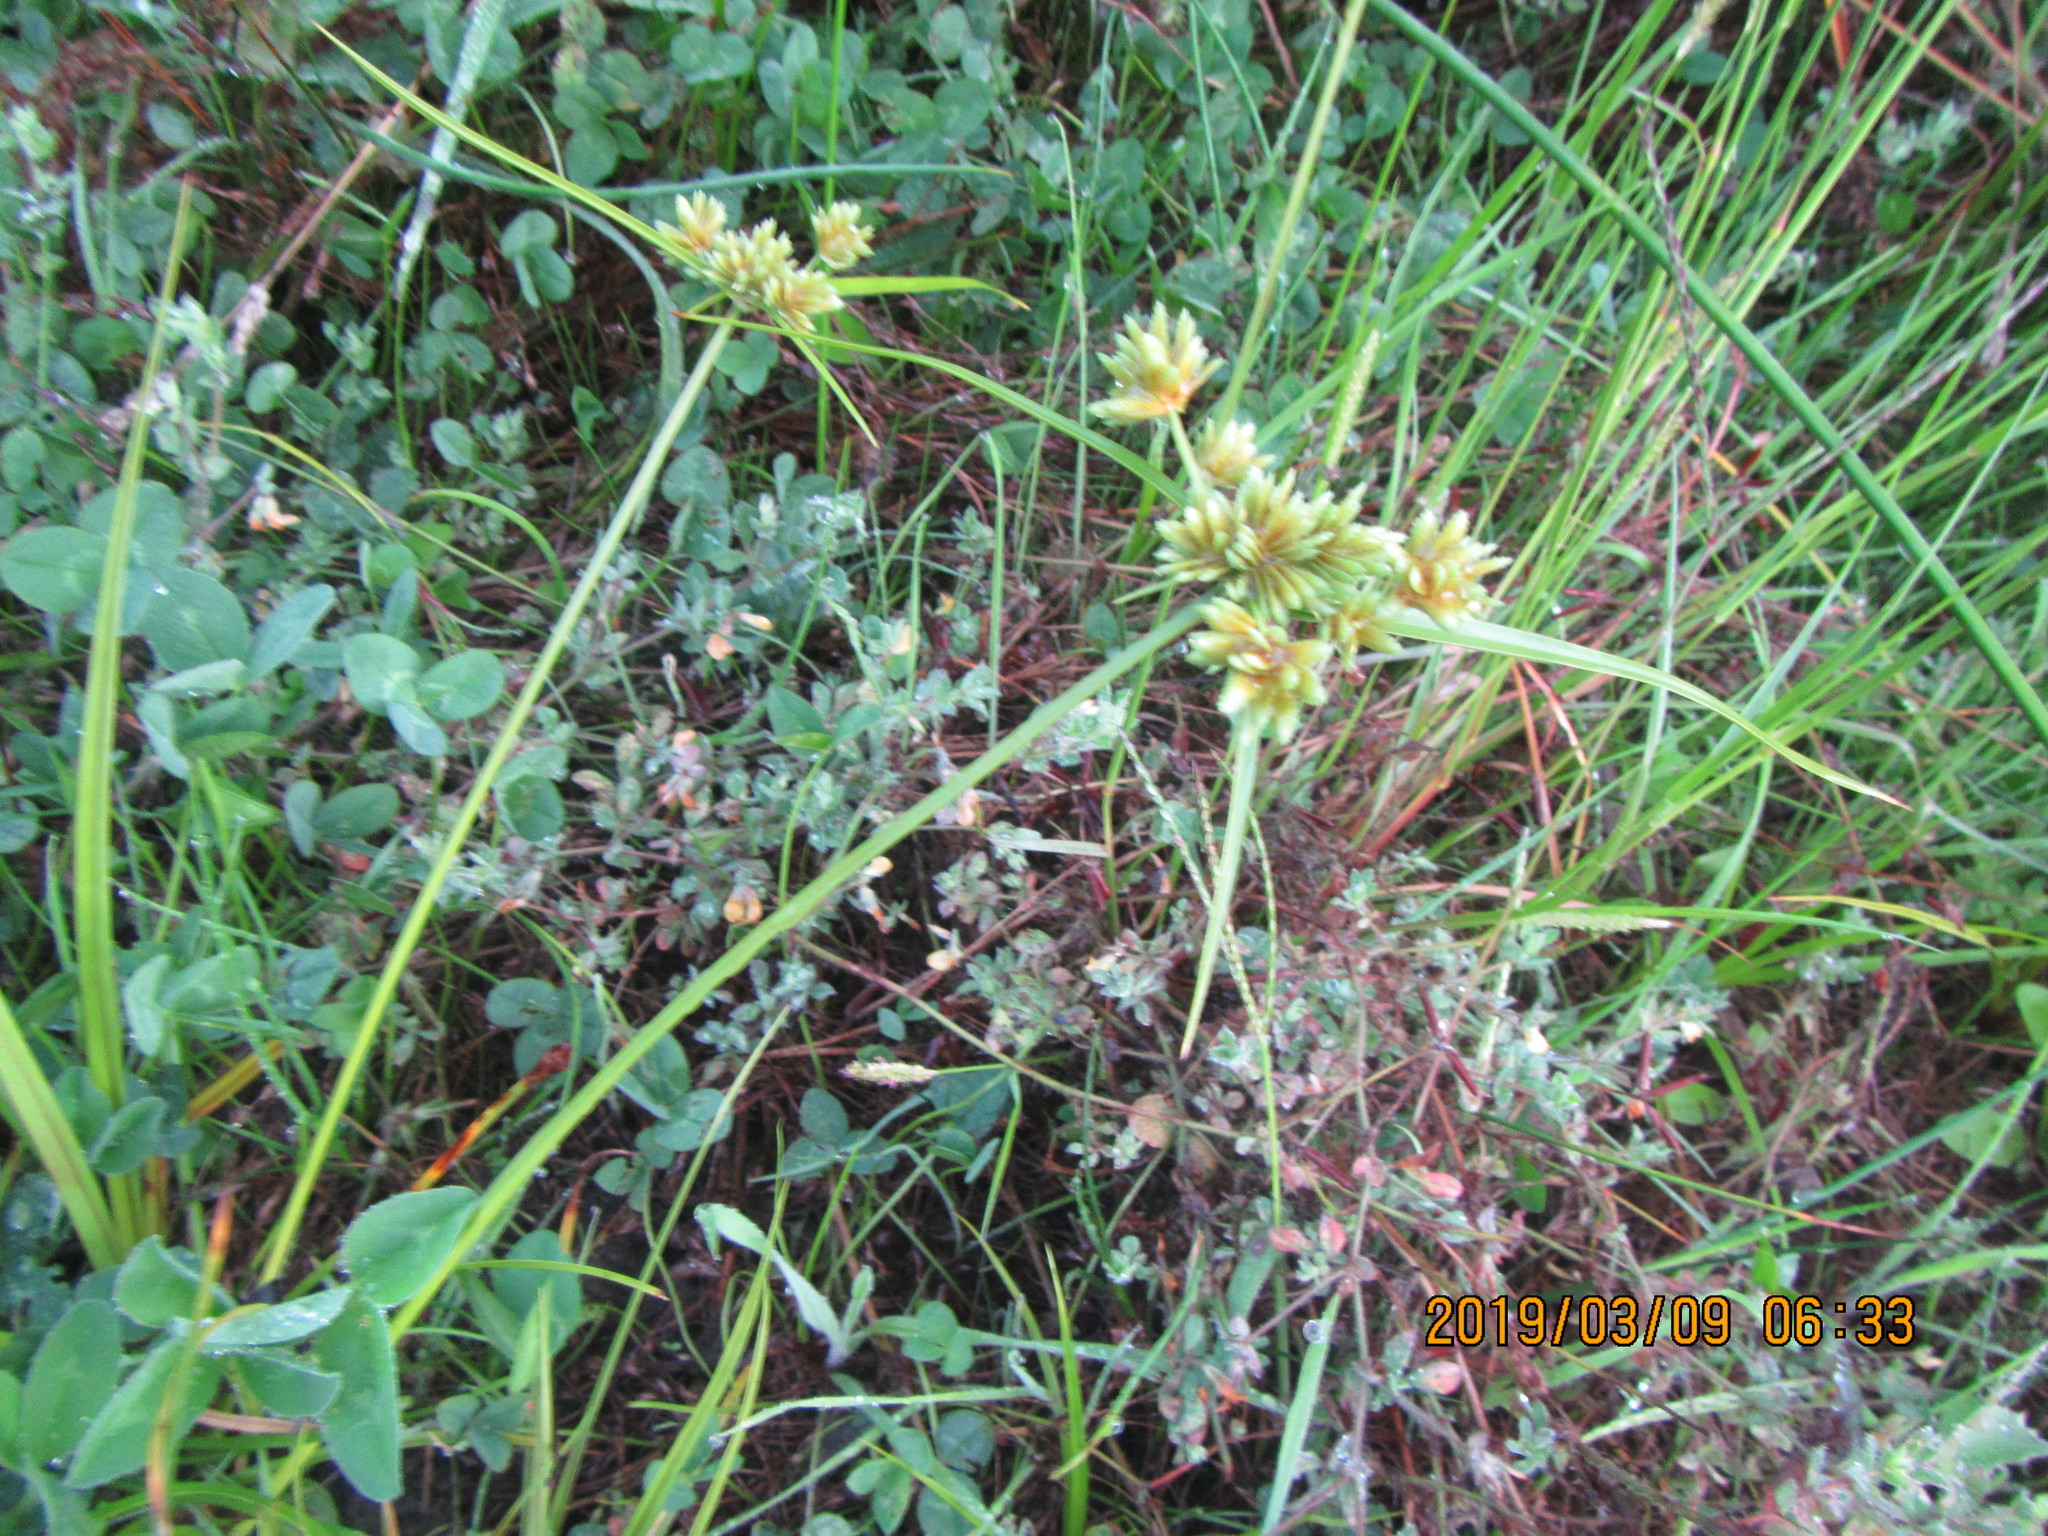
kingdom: Plantae
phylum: Tracheophyta
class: Liliopsida
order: Poales
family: Cyperaceae
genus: Cyperus
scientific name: Cyperus eragrostis
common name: Tall flatsedge
